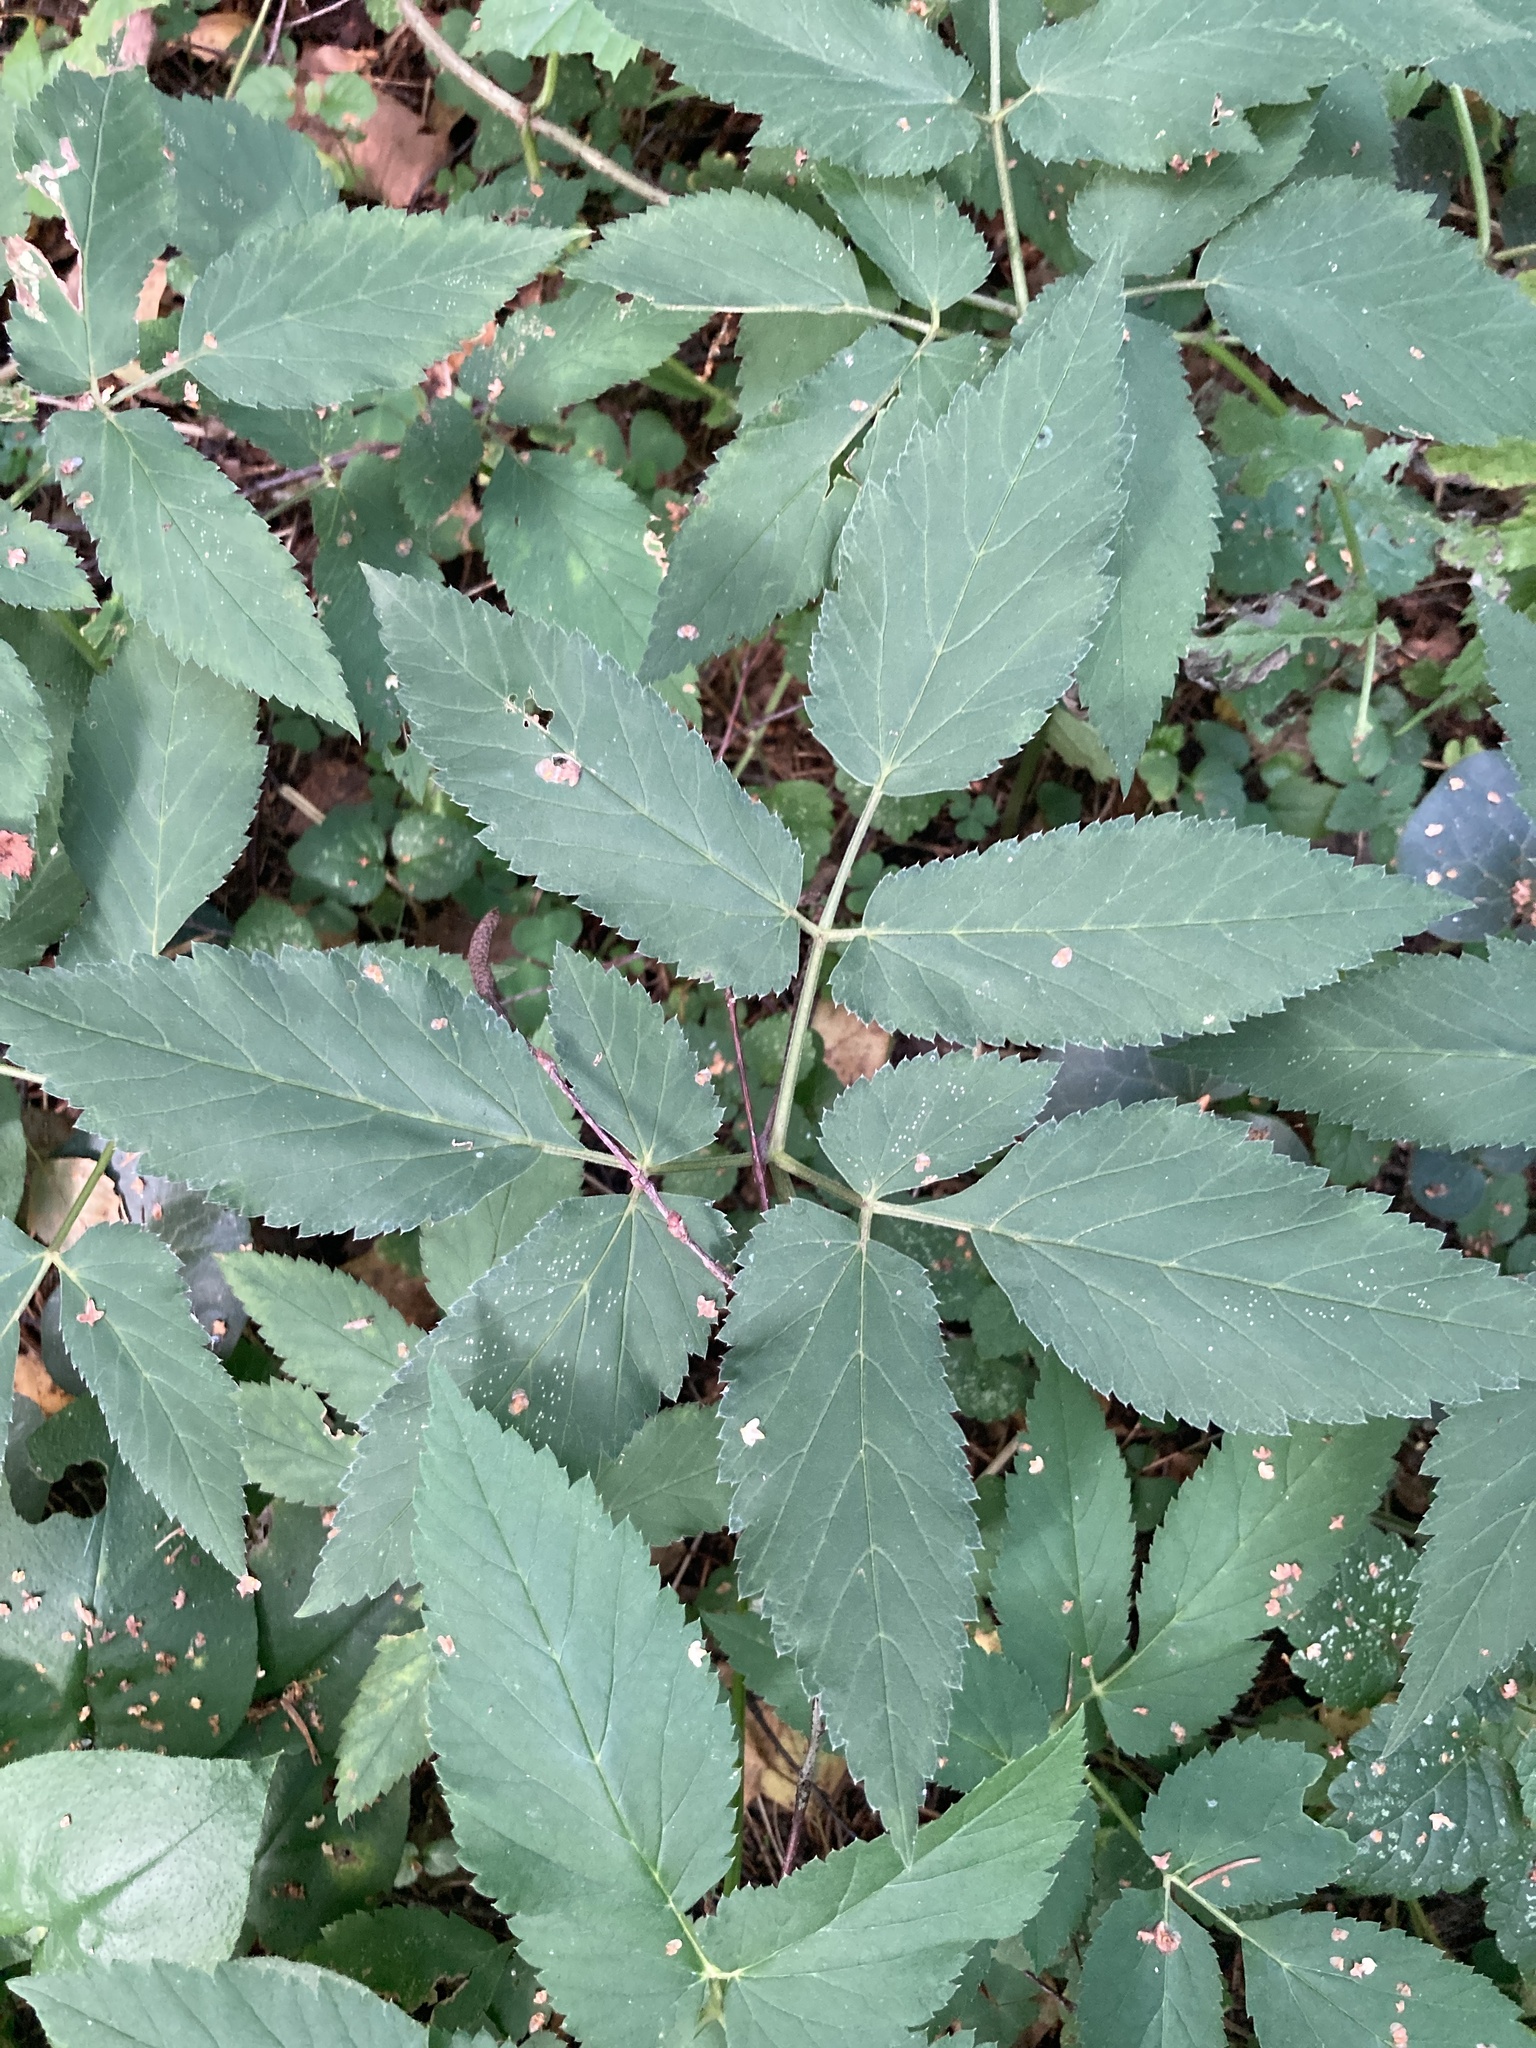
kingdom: Plantae
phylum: Tracheophyta
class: Magnoliopsida
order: Apiales
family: Apiaceae
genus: Aegopodium
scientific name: Aegopodium podagraria
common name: Ground-elder
